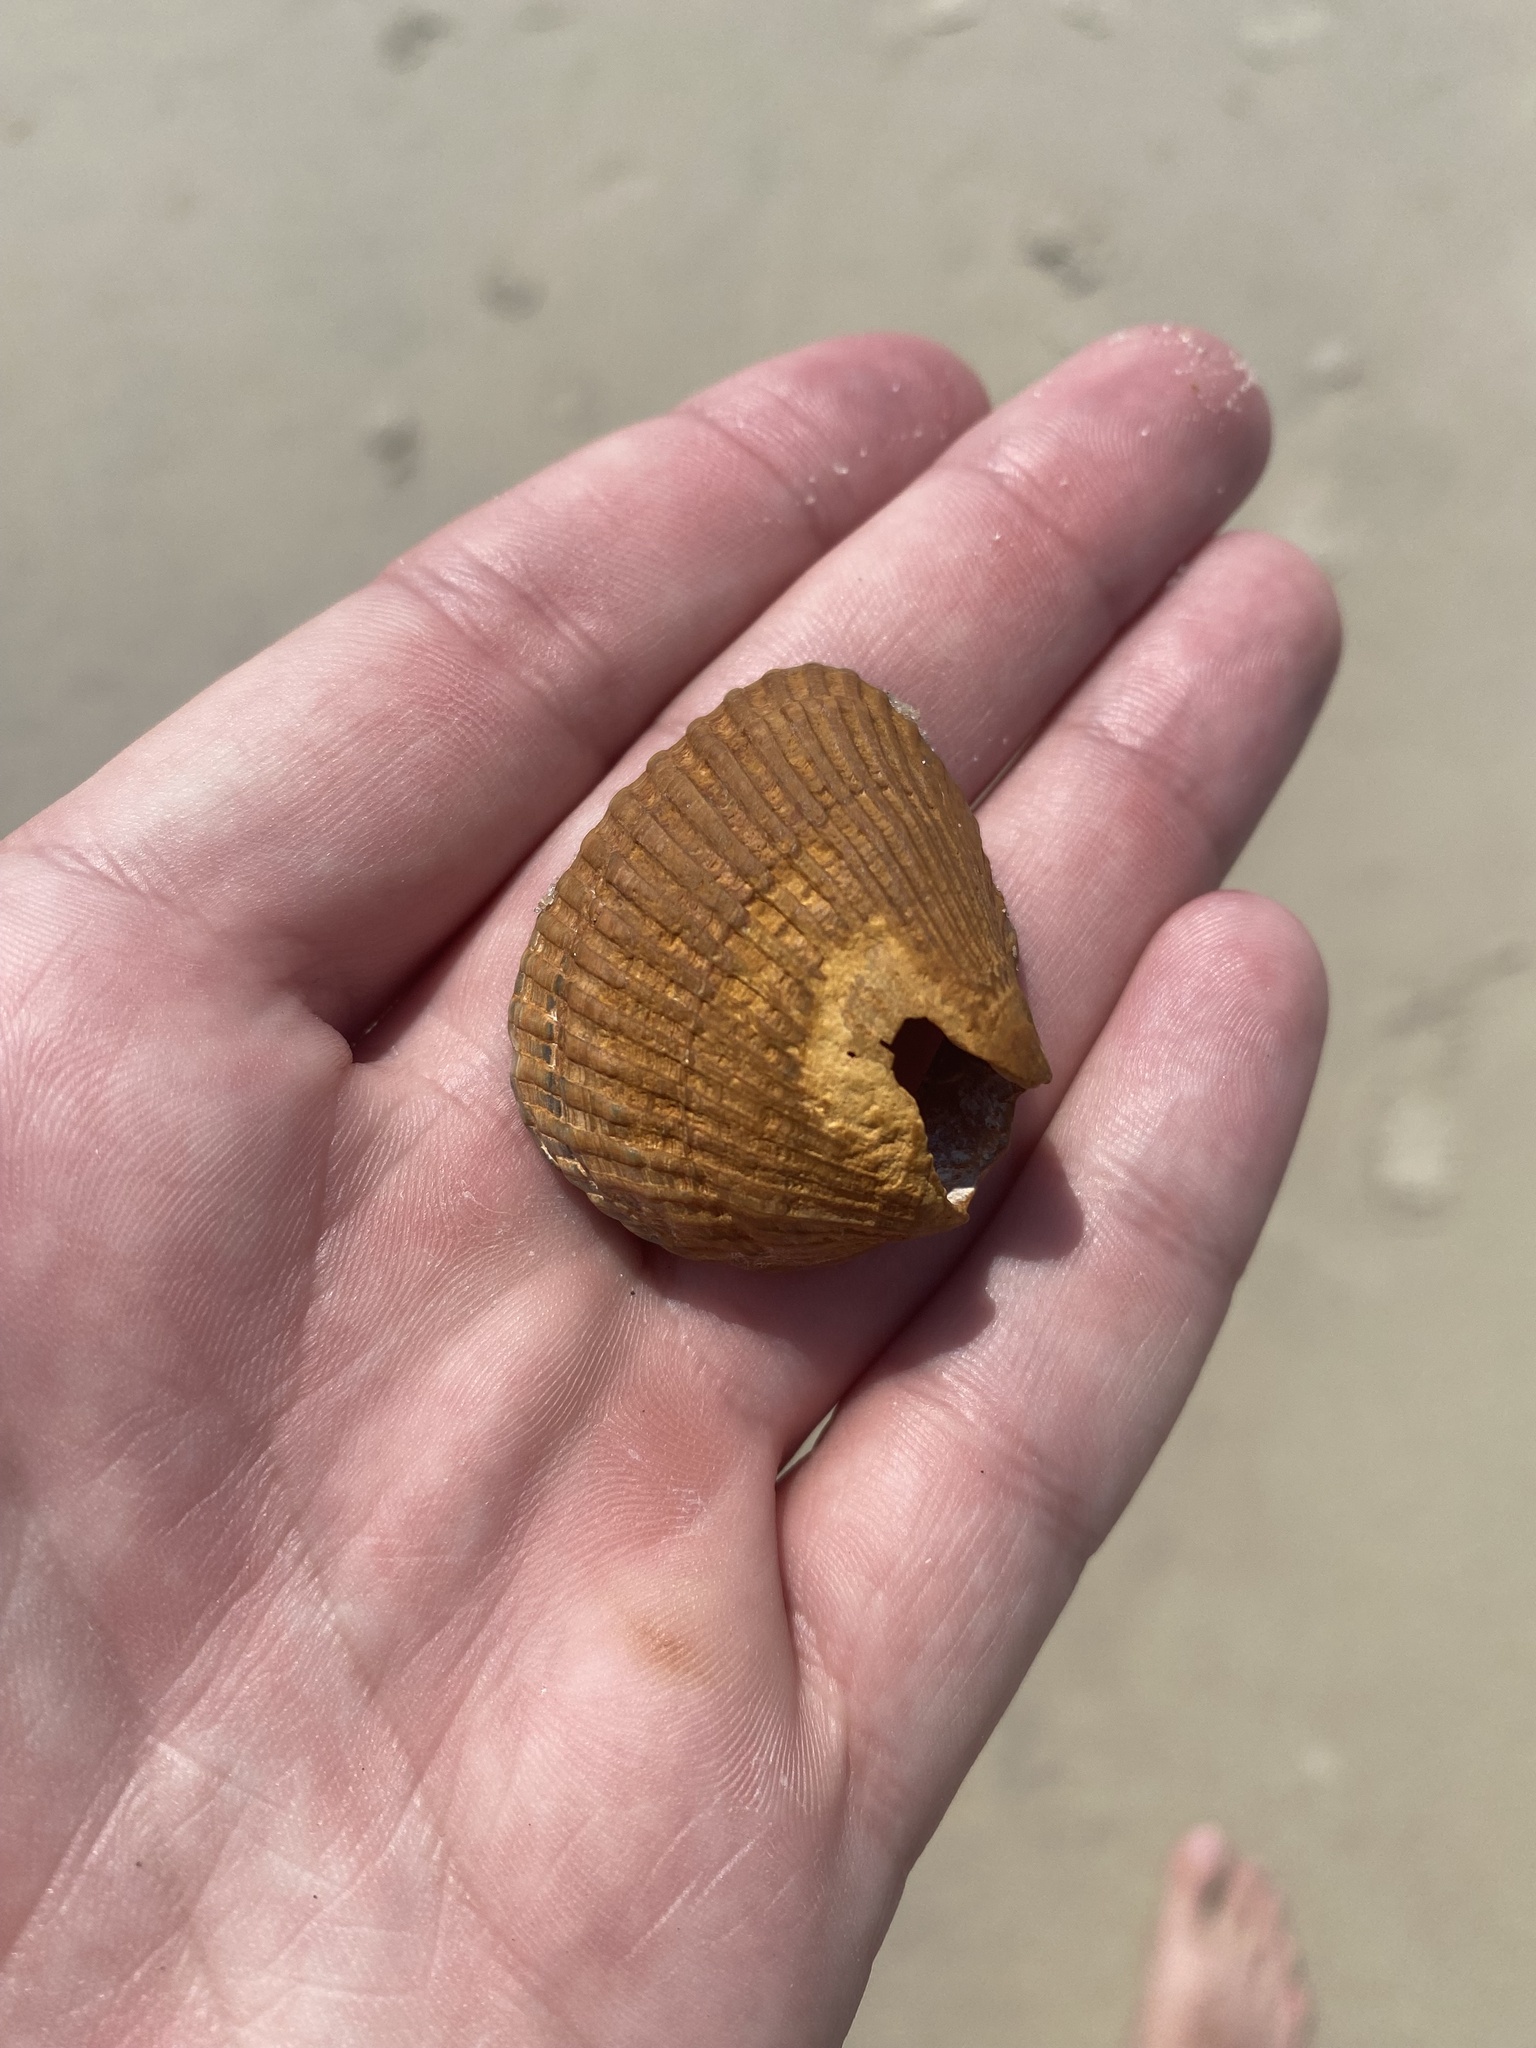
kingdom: Animalia
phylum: Mollusca
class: Bivalvia
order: Arcida
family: Noetiidae
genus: Noetia
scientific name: Noetia ponderosa
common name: Ponderous ark
